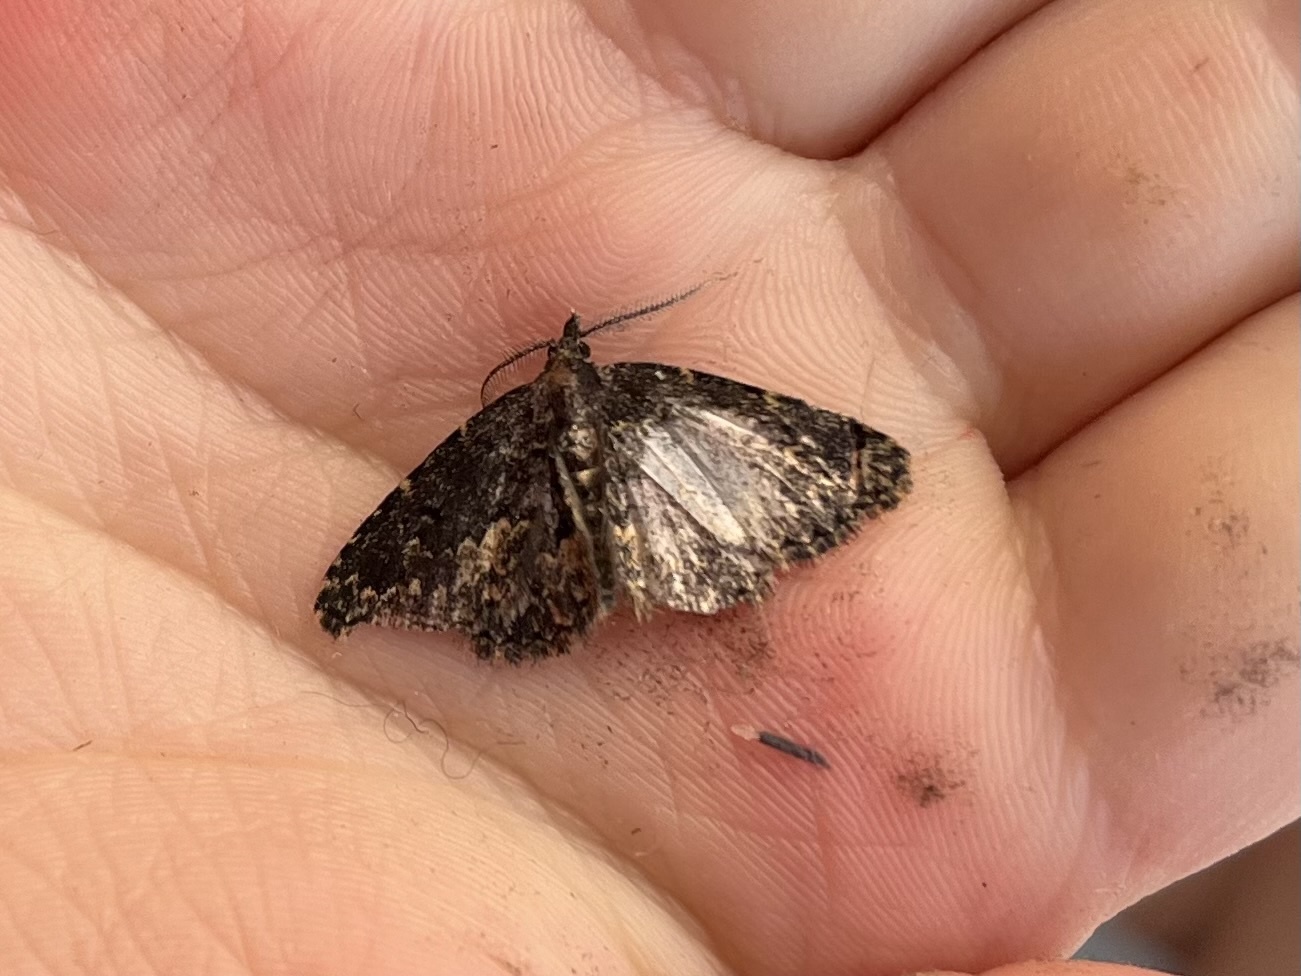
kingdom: Animalia
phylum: Arthropoda
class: Insecta
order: Lepidoptera
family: Erebidae
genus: Parascotia
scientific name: Parascotia fuliginaria
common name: Waved black
